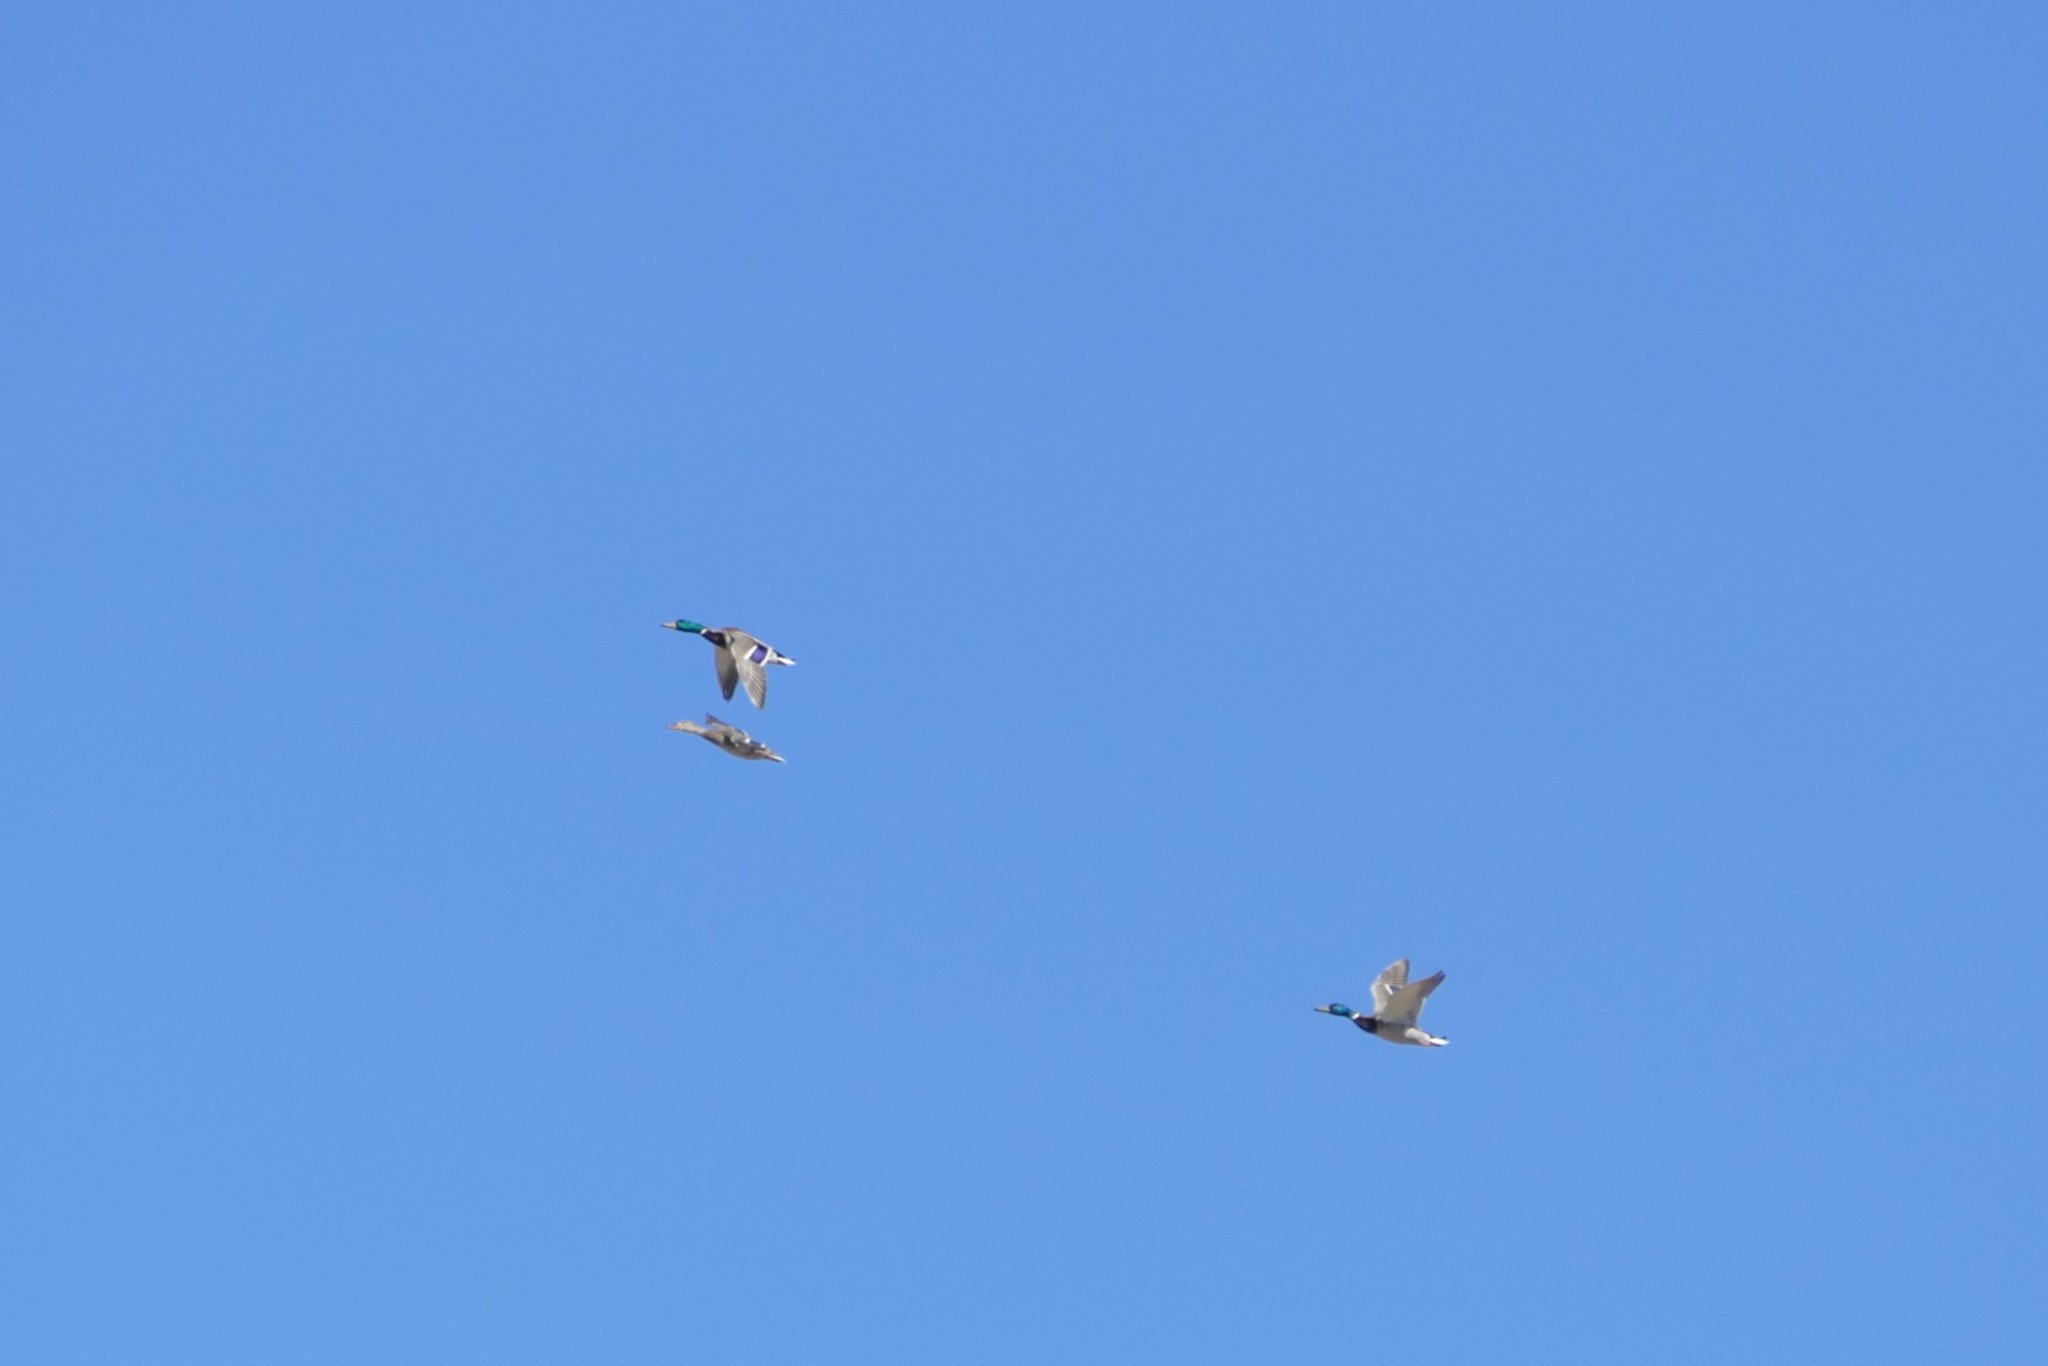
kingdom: Animalia
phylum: Chordata
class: Aves
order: Anseriformes
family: Anatidae
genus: Anas
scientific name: Anas platyrhynchos
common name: Mallard
